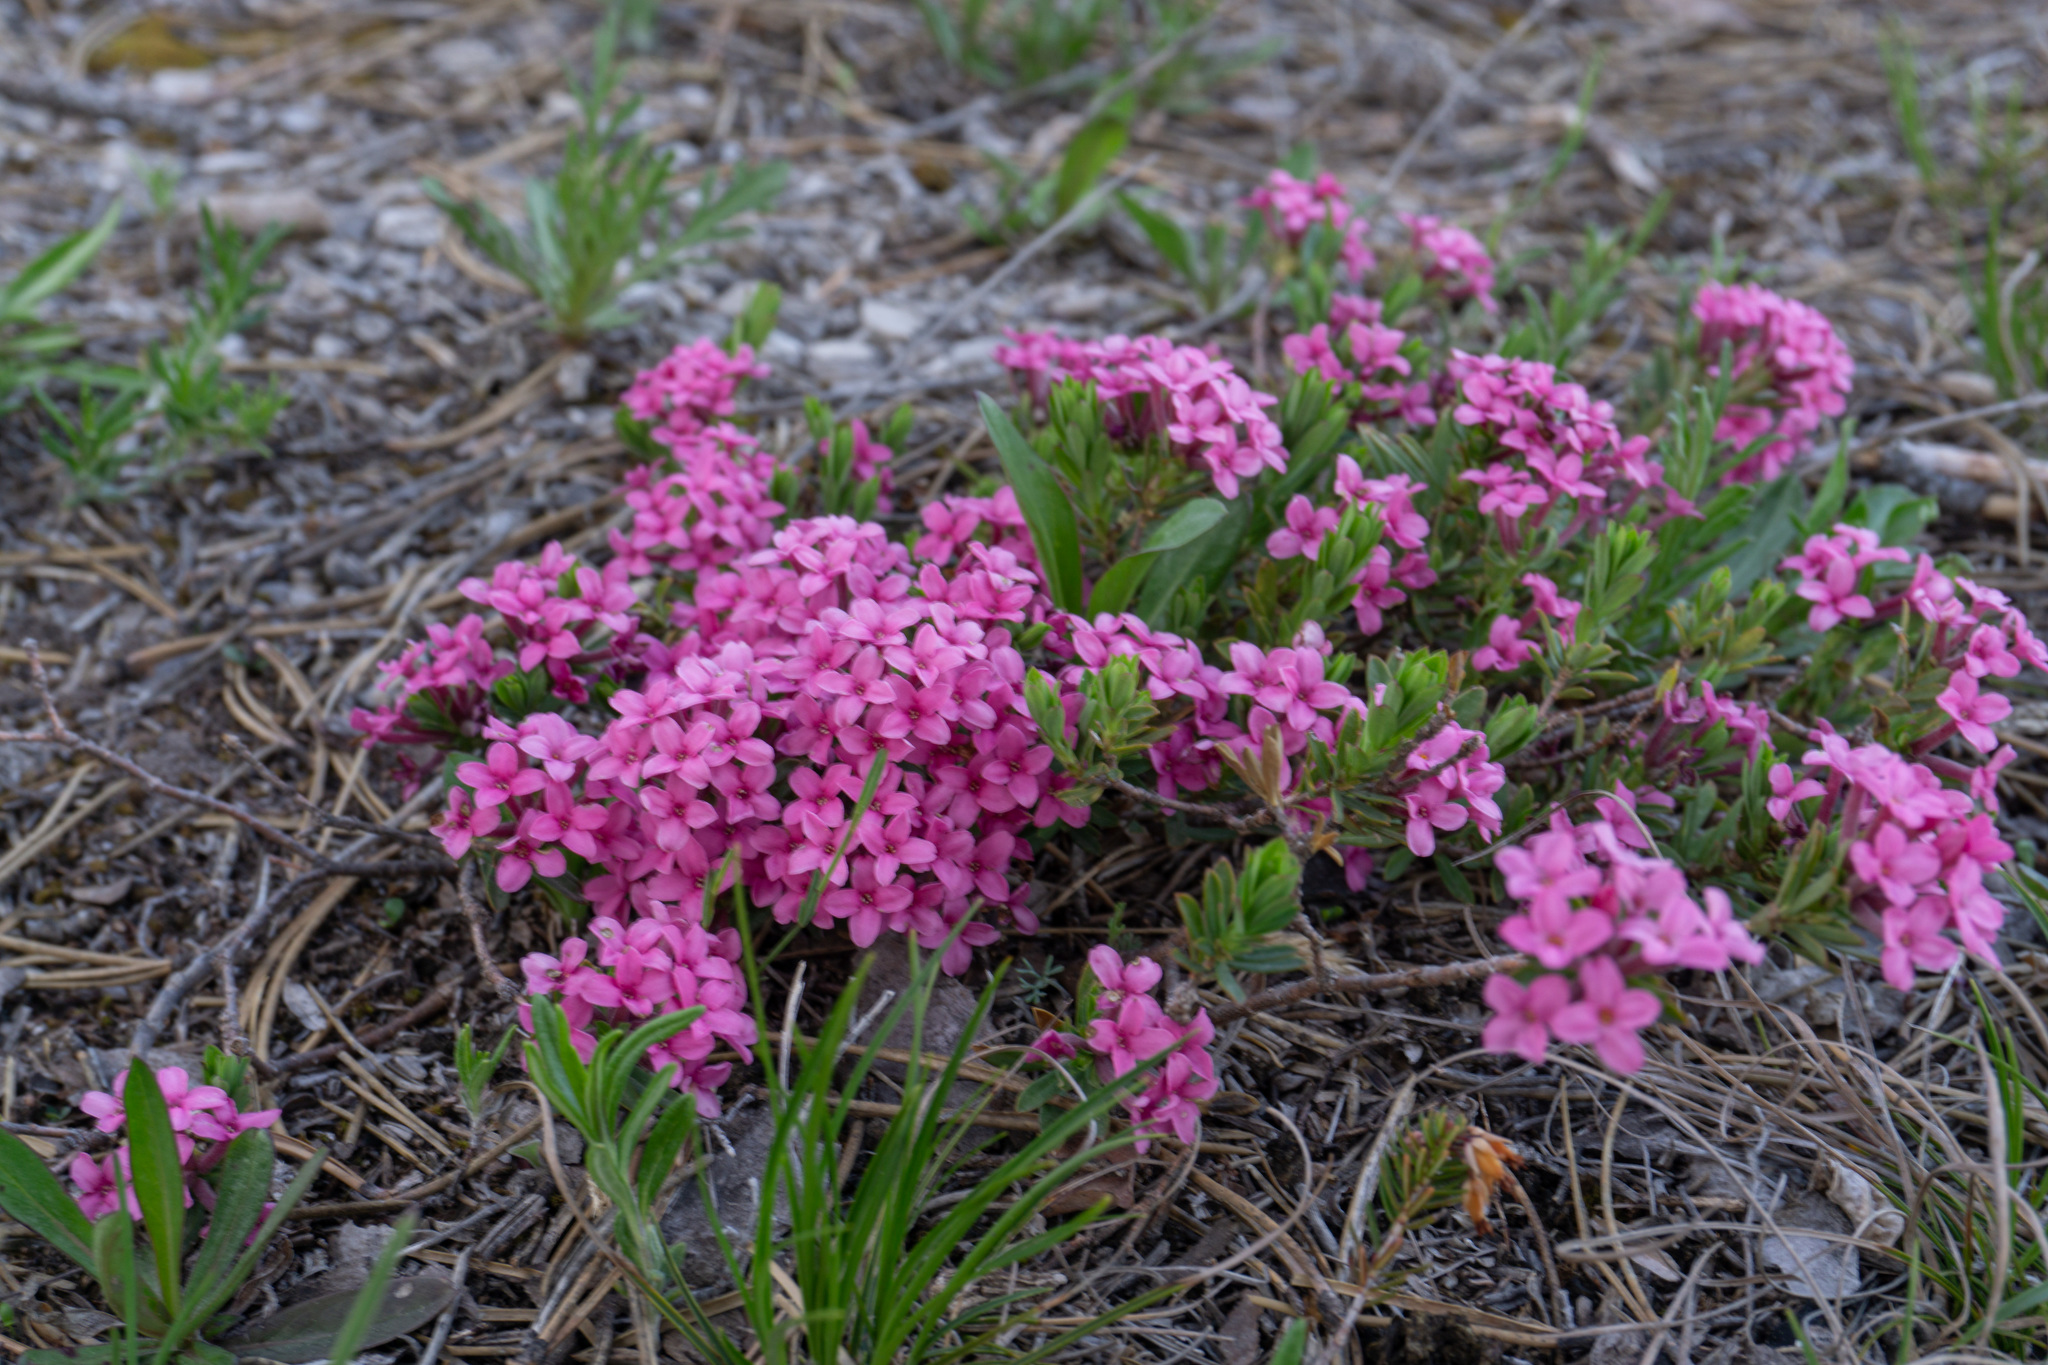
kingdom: Plantae
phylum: Tracheophyta
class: Magnoliopsida
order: Malvales
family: Thymelaeaceae
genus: Daphne
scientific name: Daphne cneorum
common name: Garland-flower
